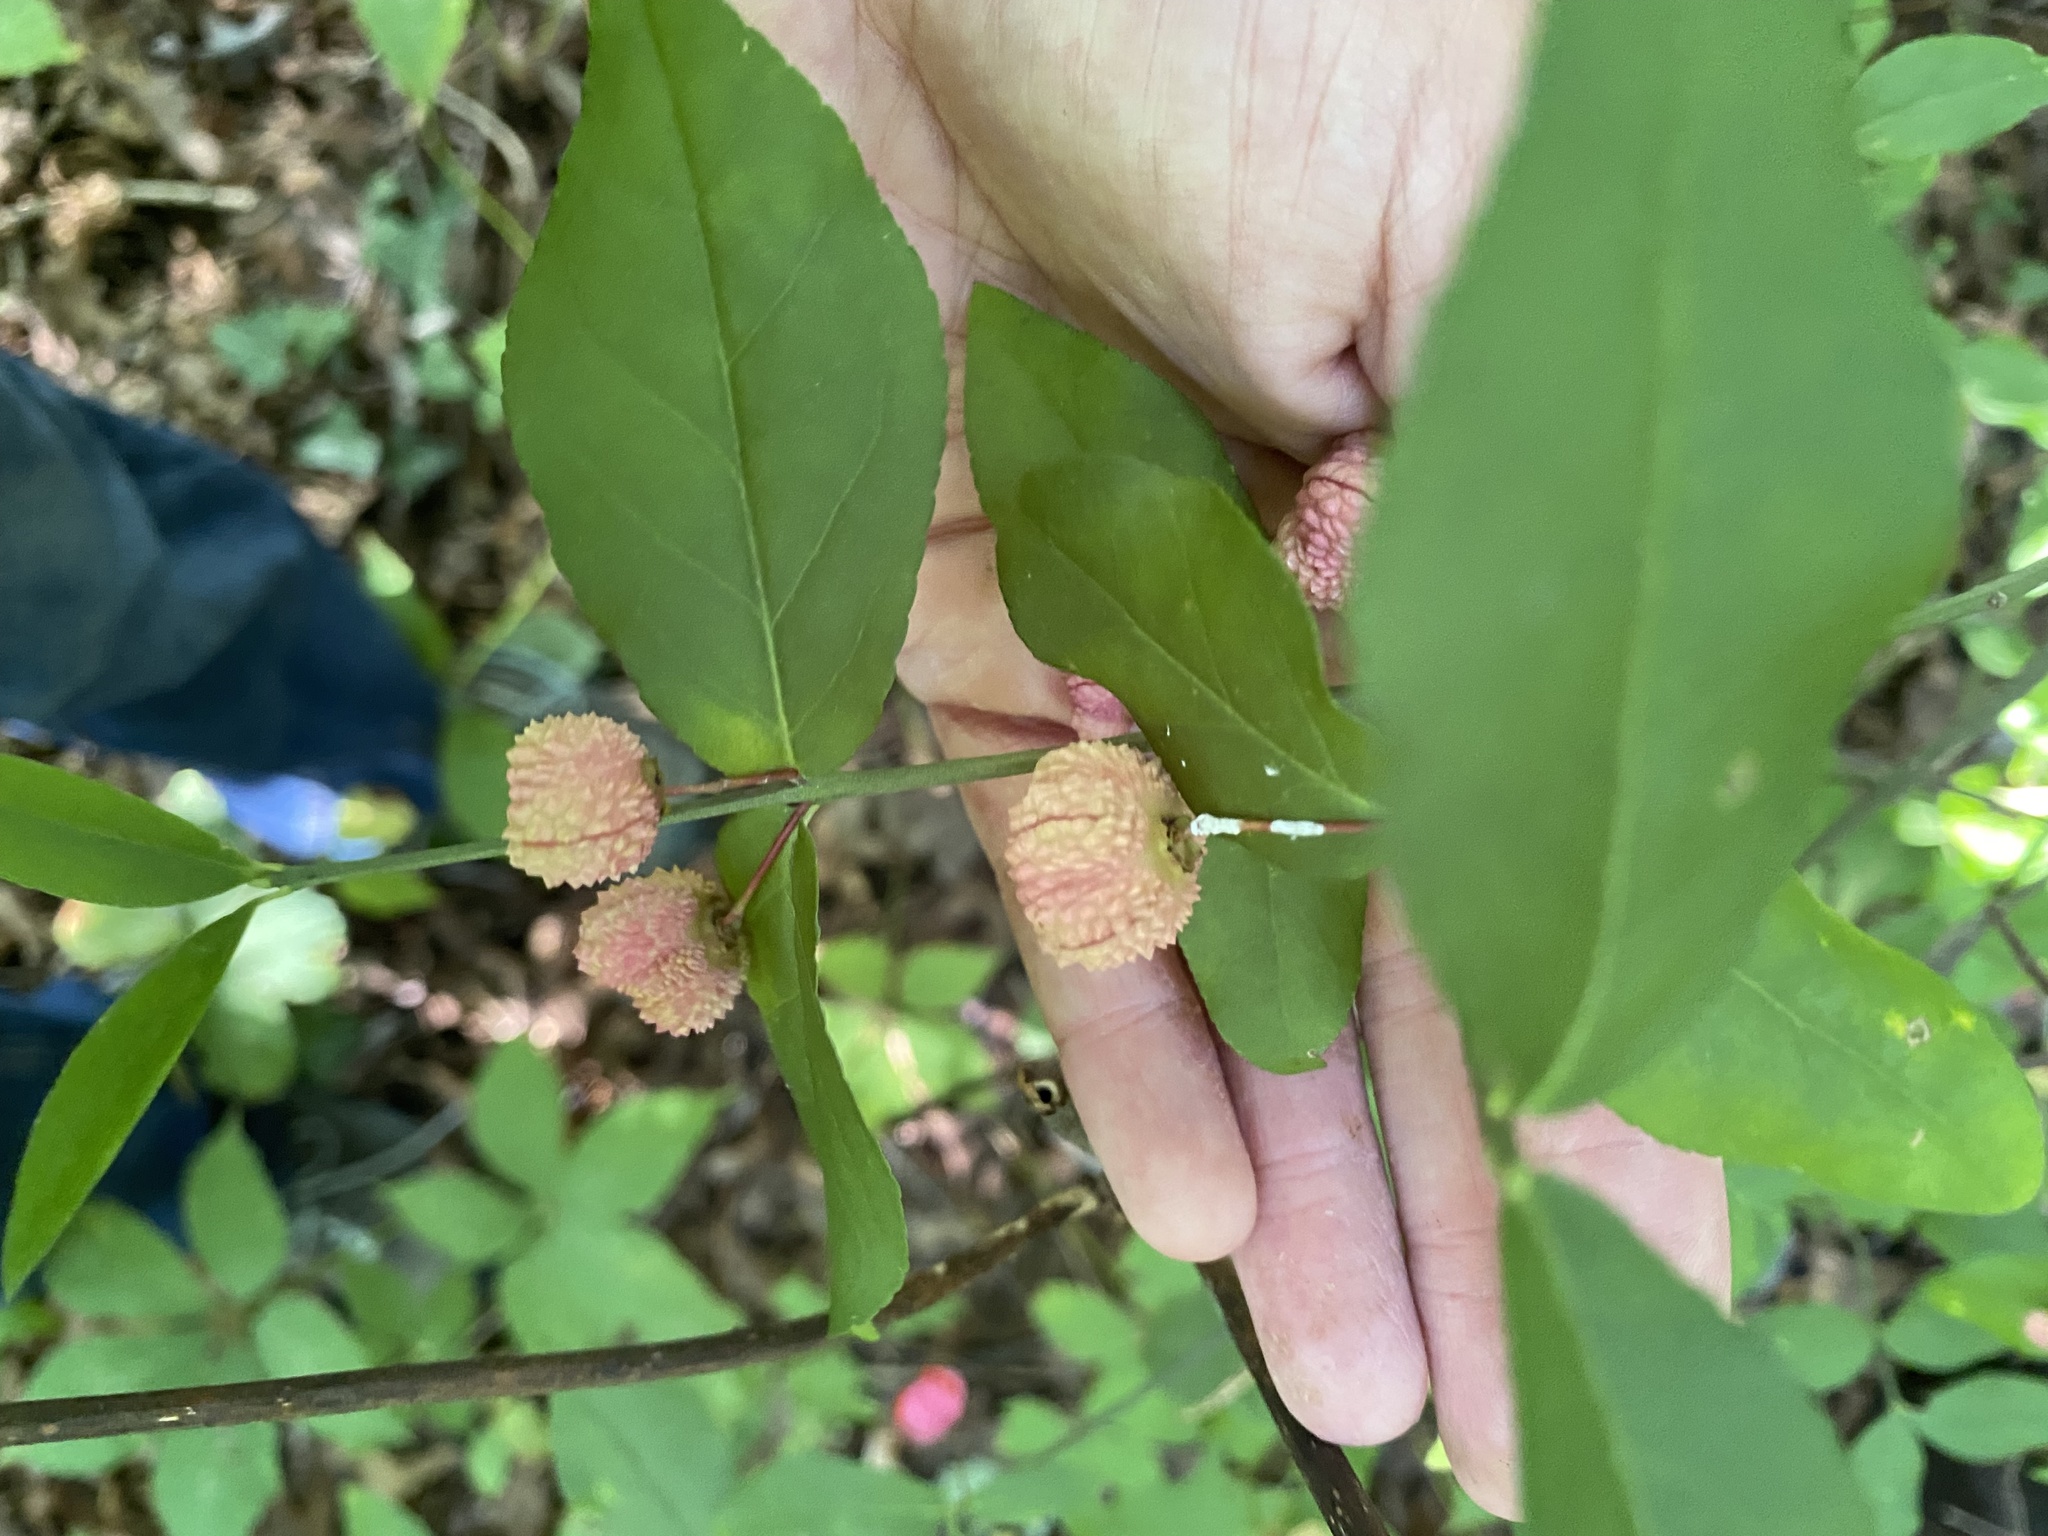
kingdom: Plantae
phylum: Tracheophyta
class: Magnoliopsida
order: Celastrales
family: Celastraceae
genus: Euonymus
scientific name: Euonymus americanus
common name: Bursting-heart
